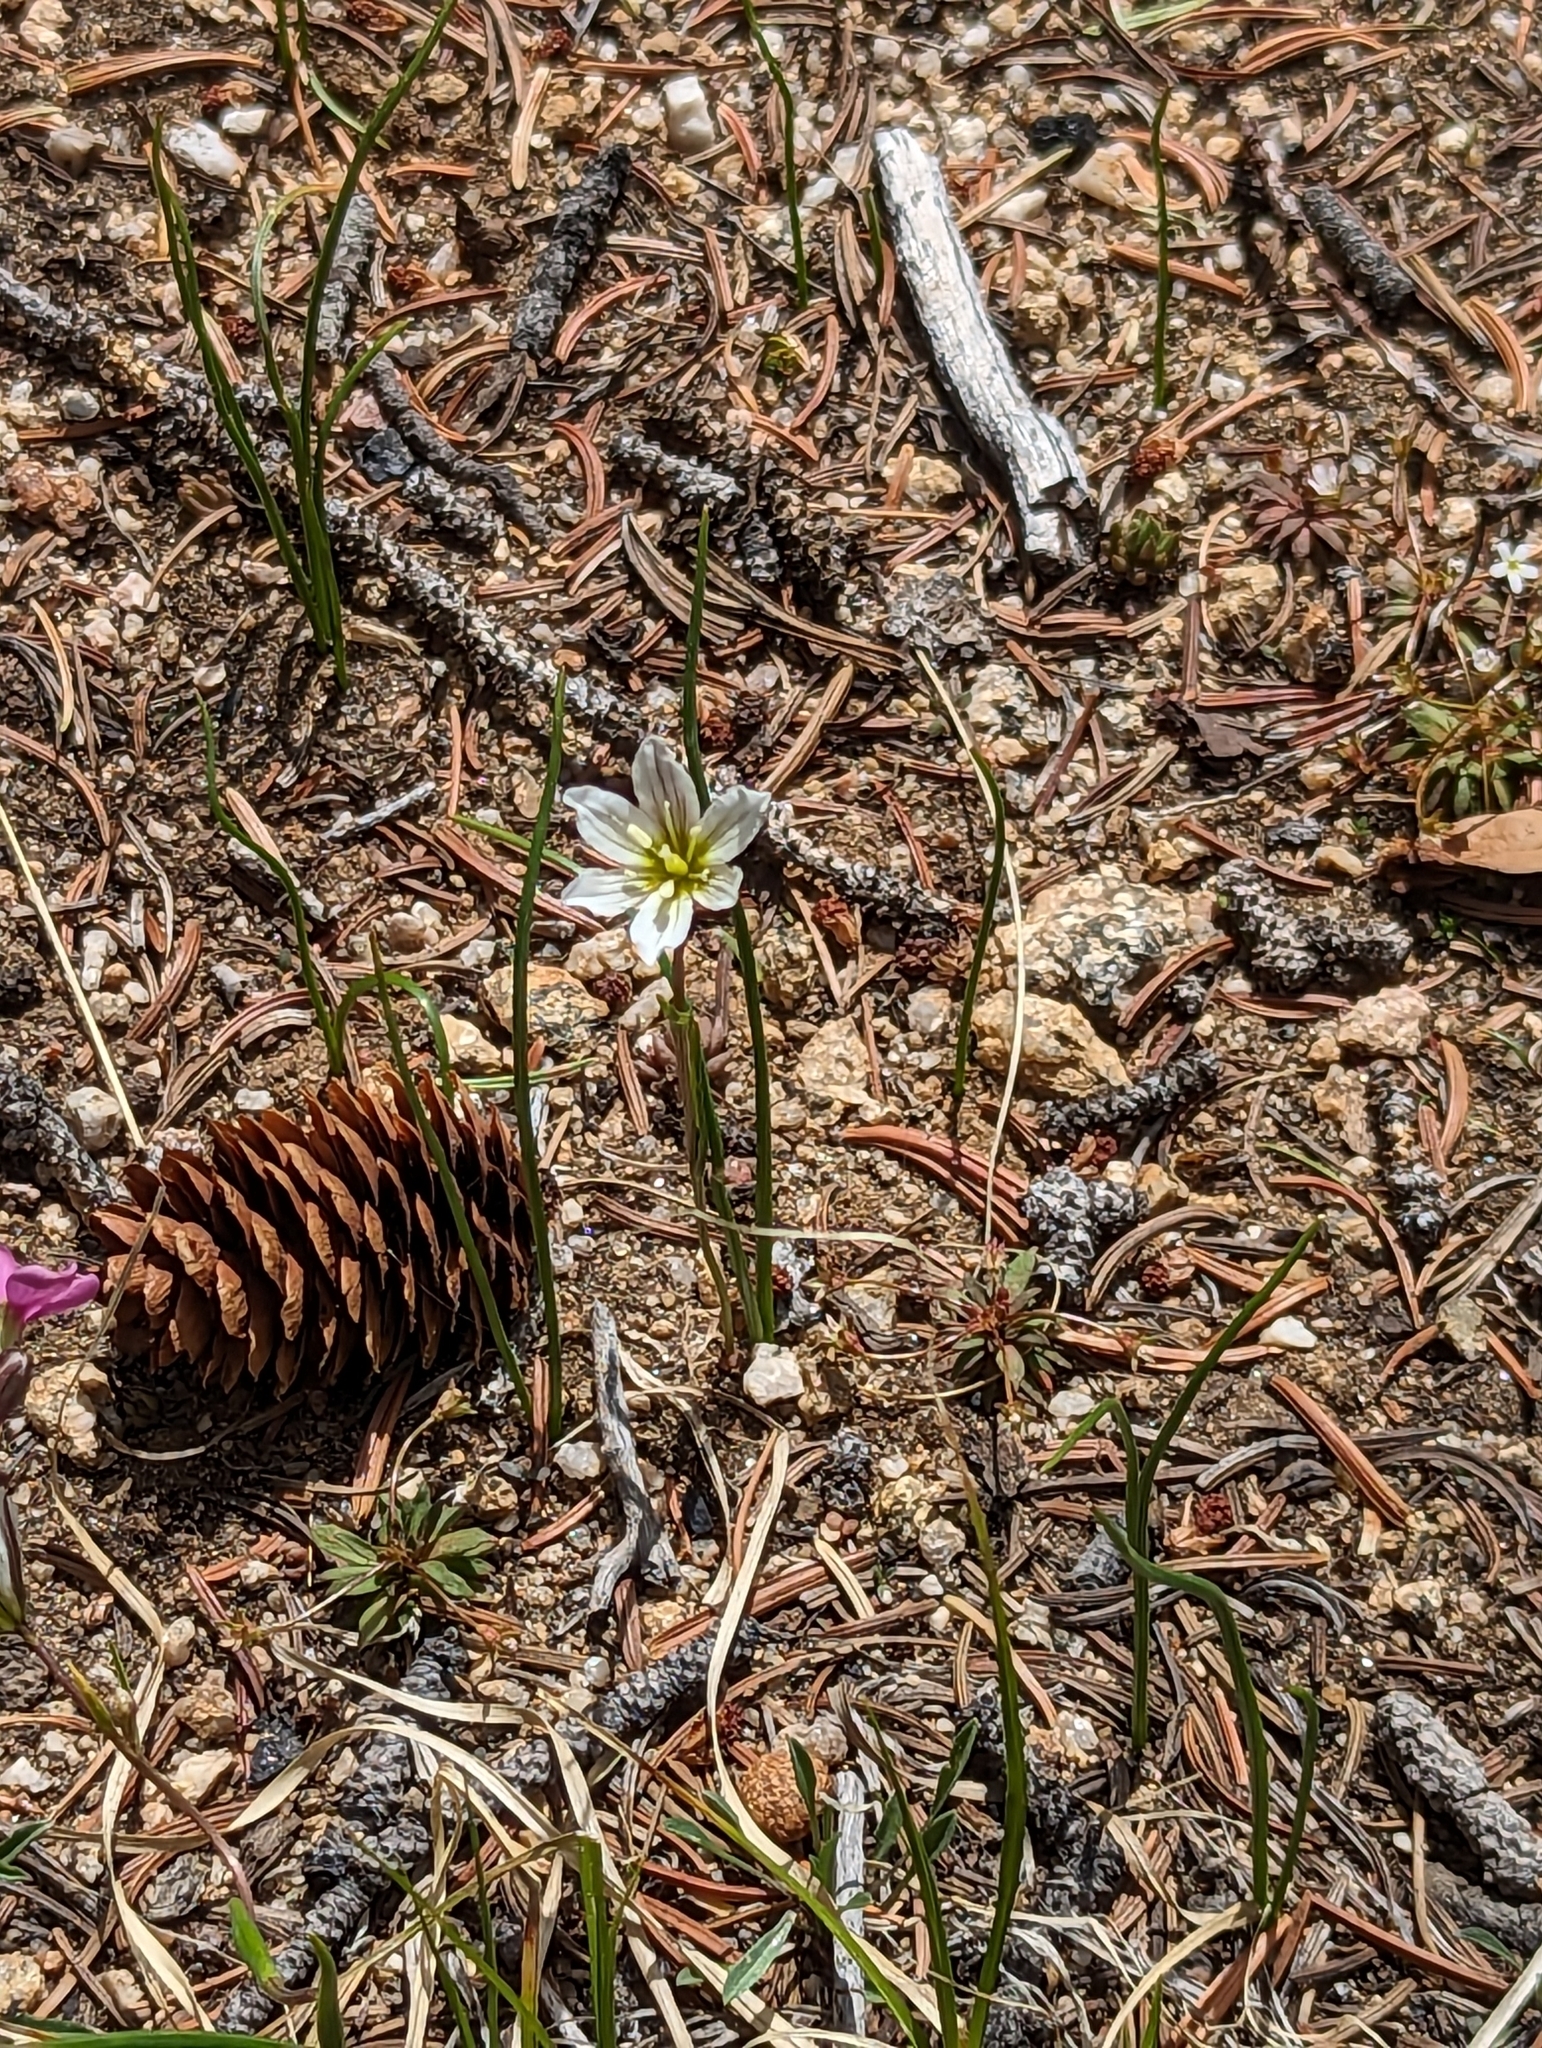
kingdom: Plantae
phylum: Tracheophyta
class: Liliopsida
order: Liliales
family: Liliaceae
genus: Gagea
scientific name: Gagea serotina
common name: Snowdon lily
